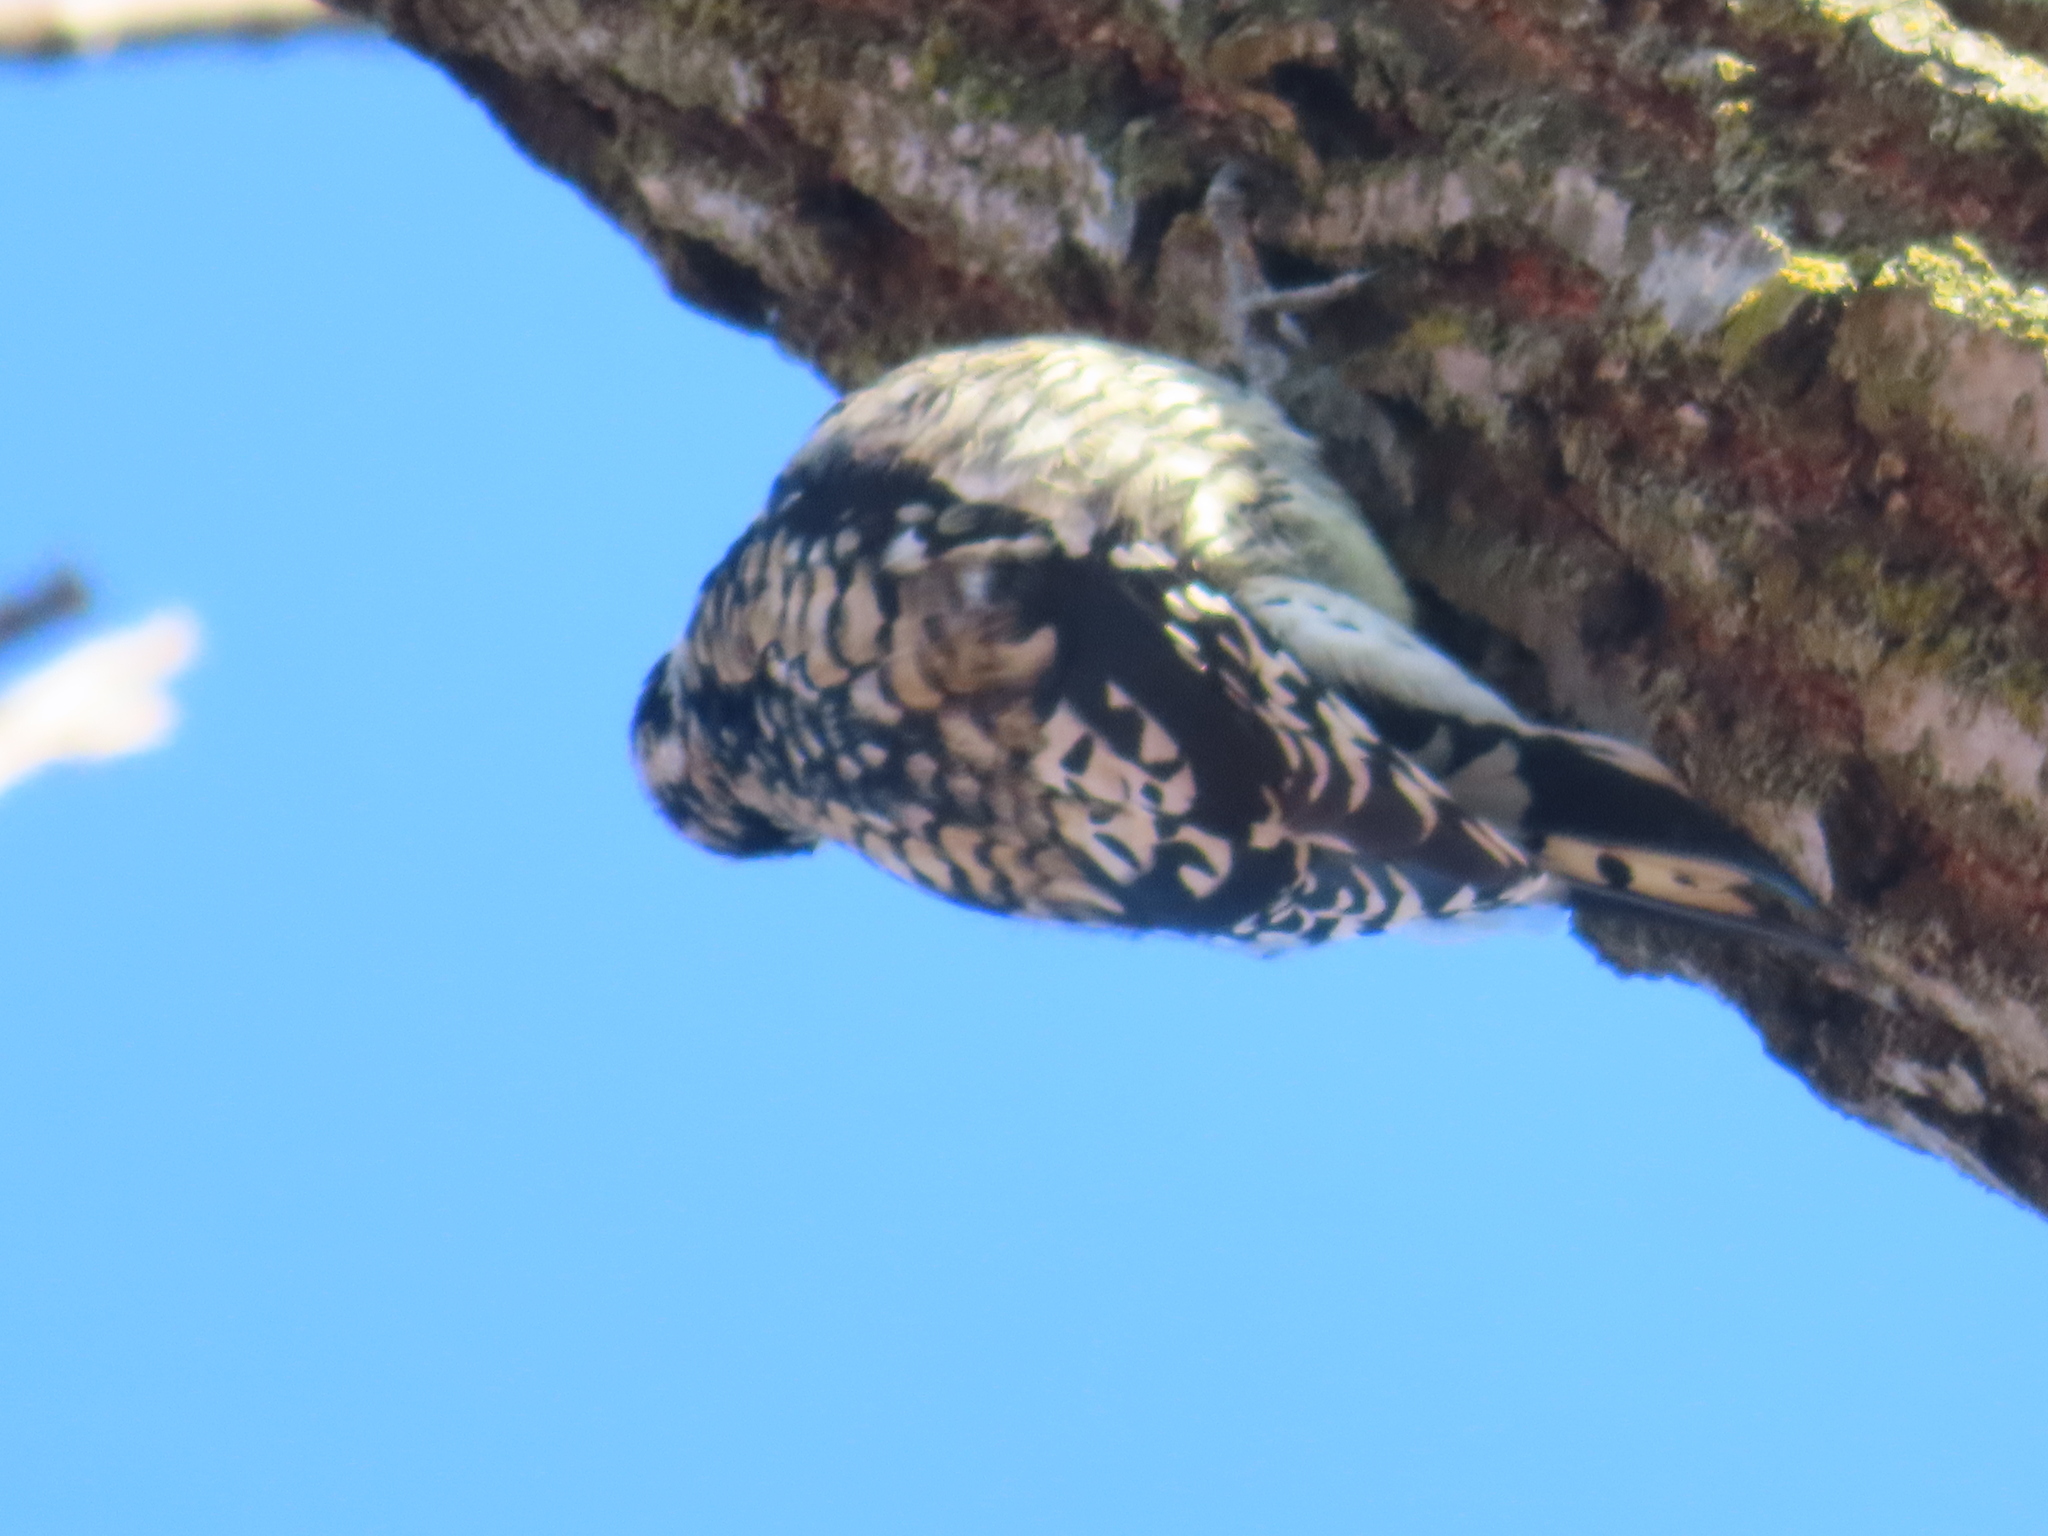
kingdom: Animalia
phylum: Chordata
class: Aves
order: Piciformes
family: Picidae
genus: Sphyrapicus
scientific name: Sphyrapicus varius
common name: Yellow-bellied sapsucker
